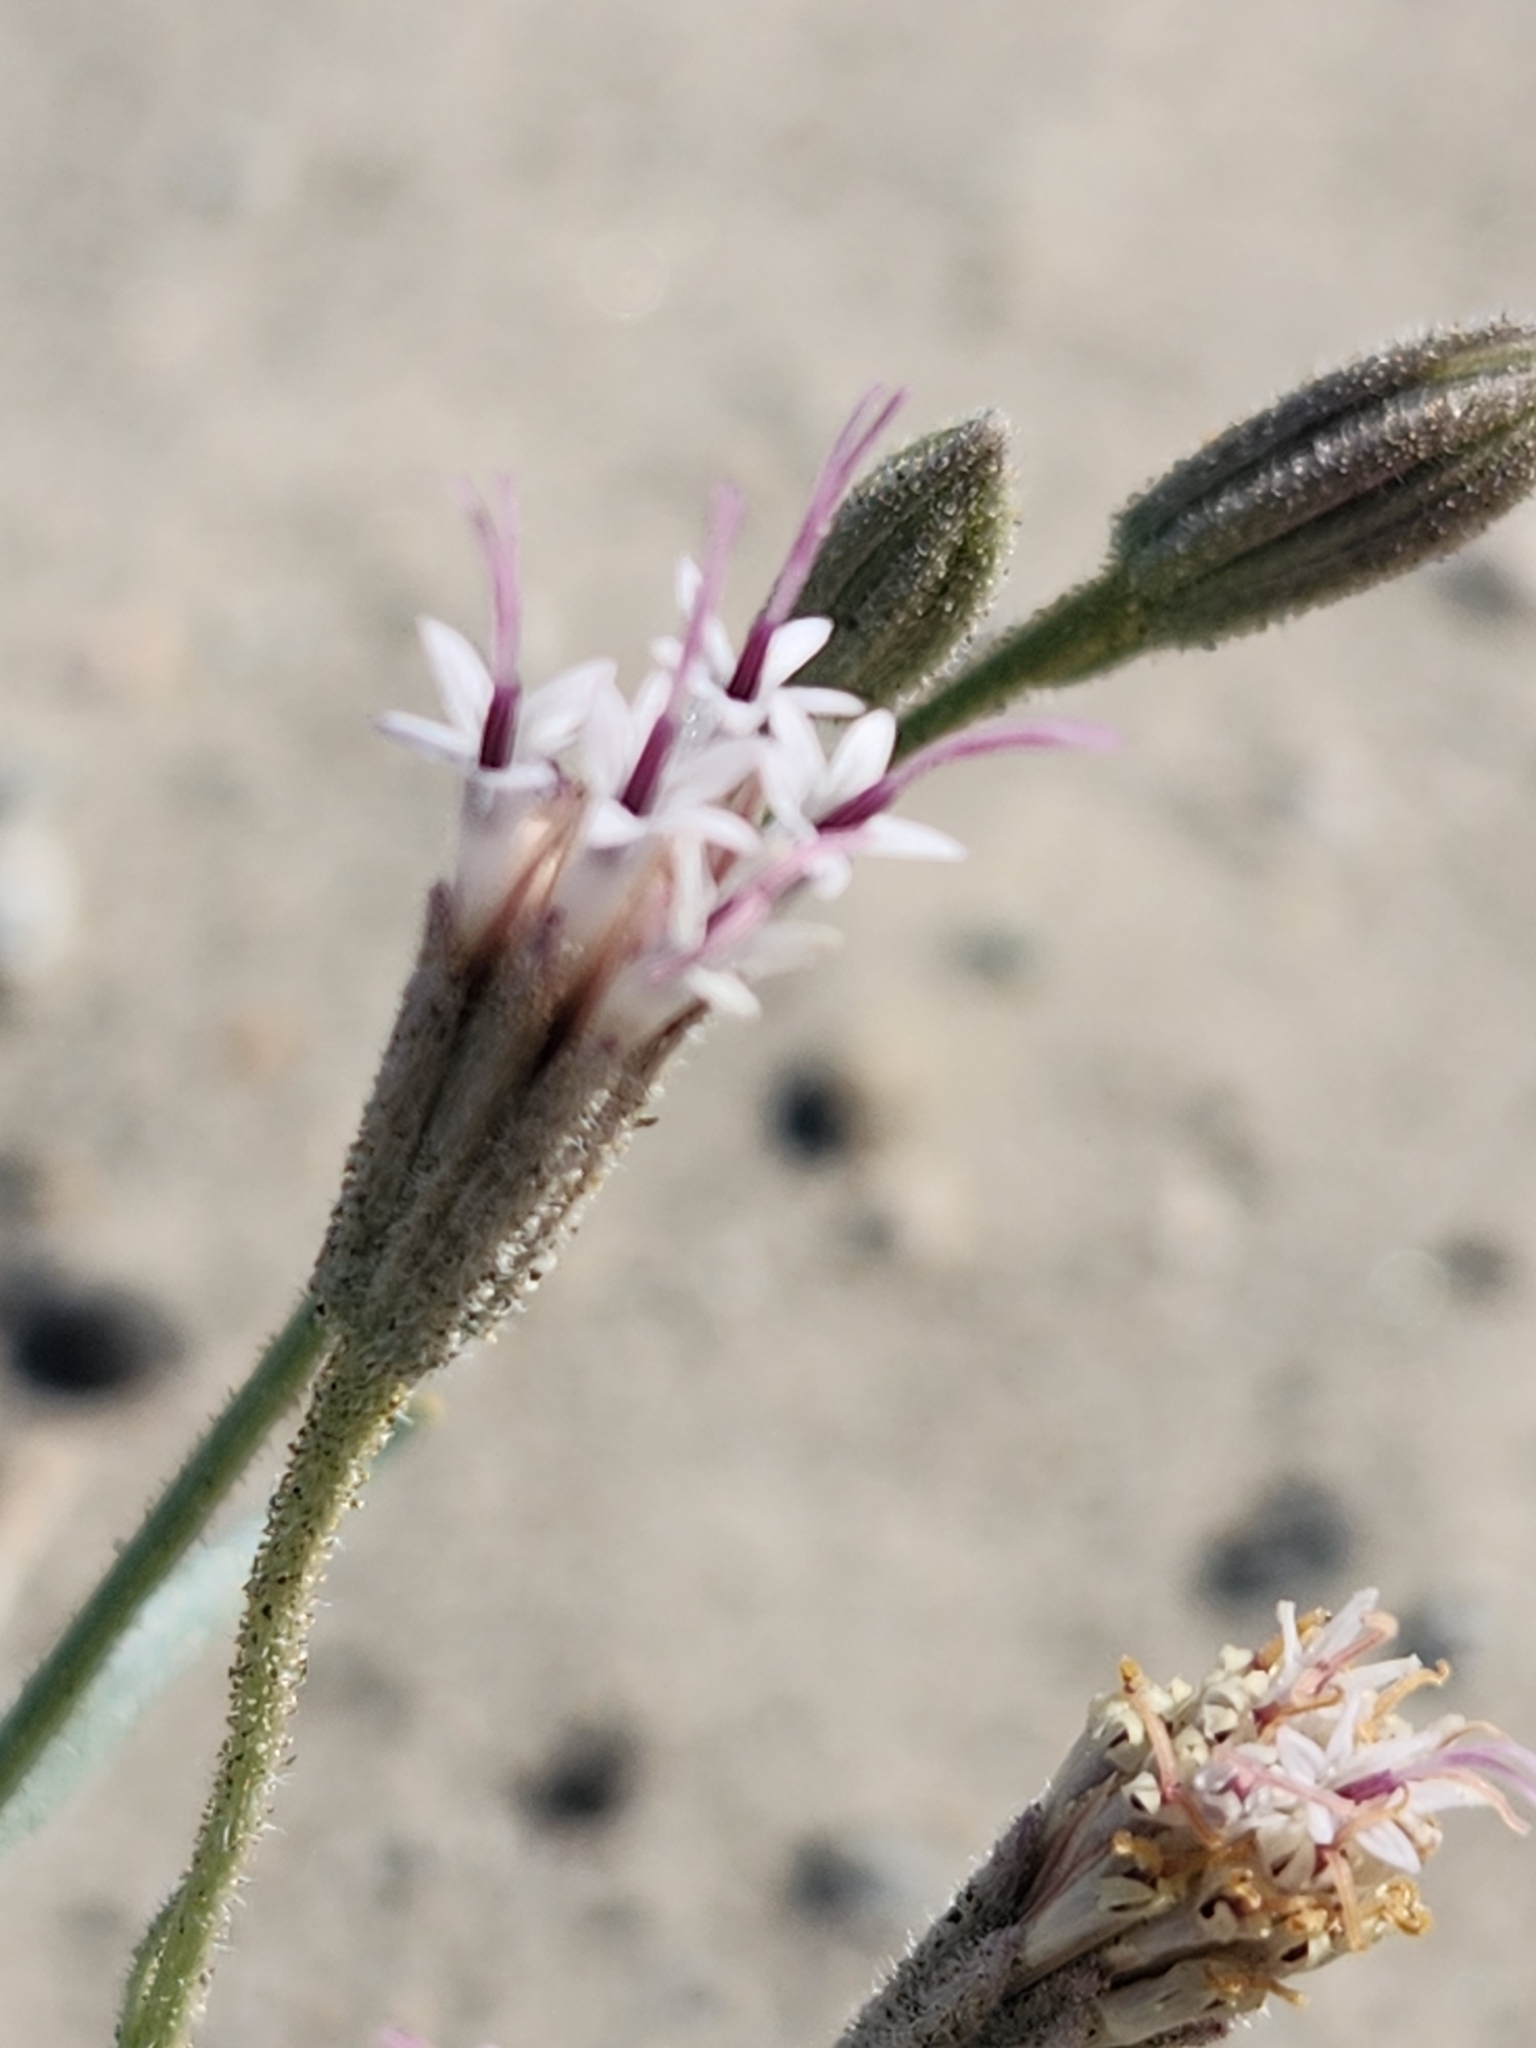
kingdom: Plantae
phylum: Tracheophyta
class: Magnoliopsida
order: Asterales
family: Asteraceae
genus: Palafoxia
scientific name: Palafoxia arida
